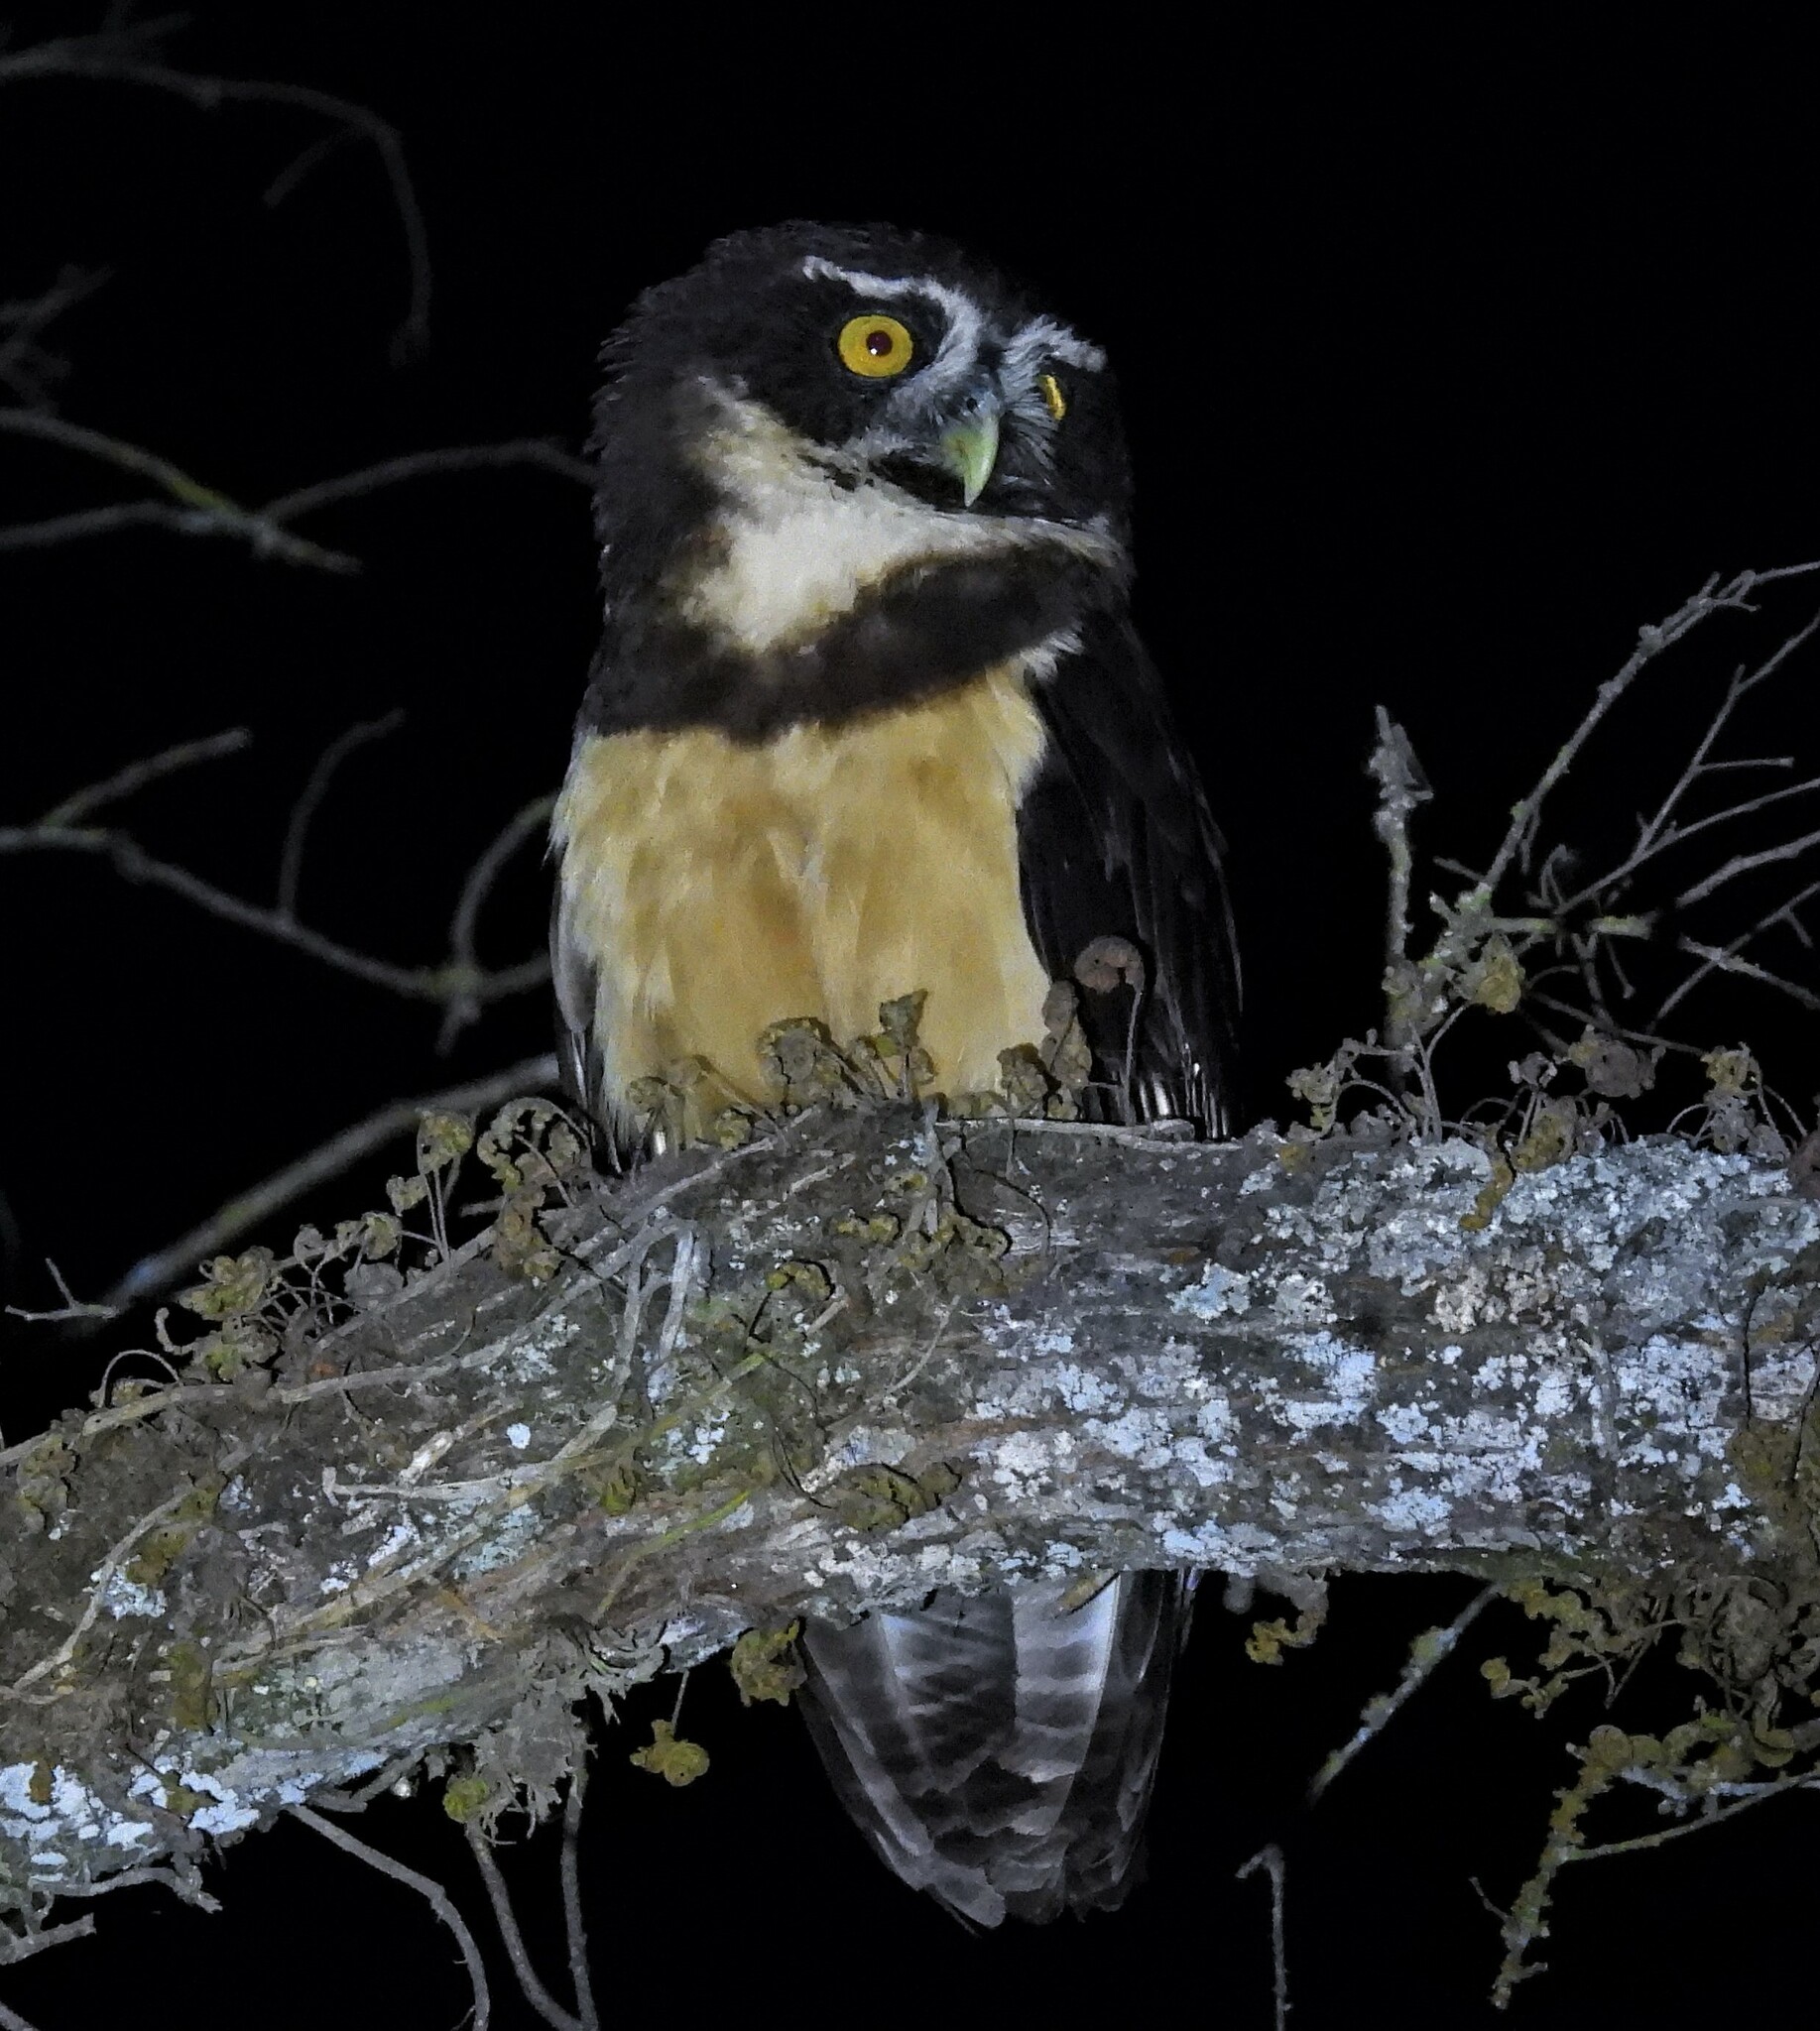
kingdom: Animalia
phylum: Chordata
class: Aves
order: Strigiformes
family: Strigidae
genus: Pulsatrix
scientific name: Pulsatrix perspicillata
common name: Spectacled owl
